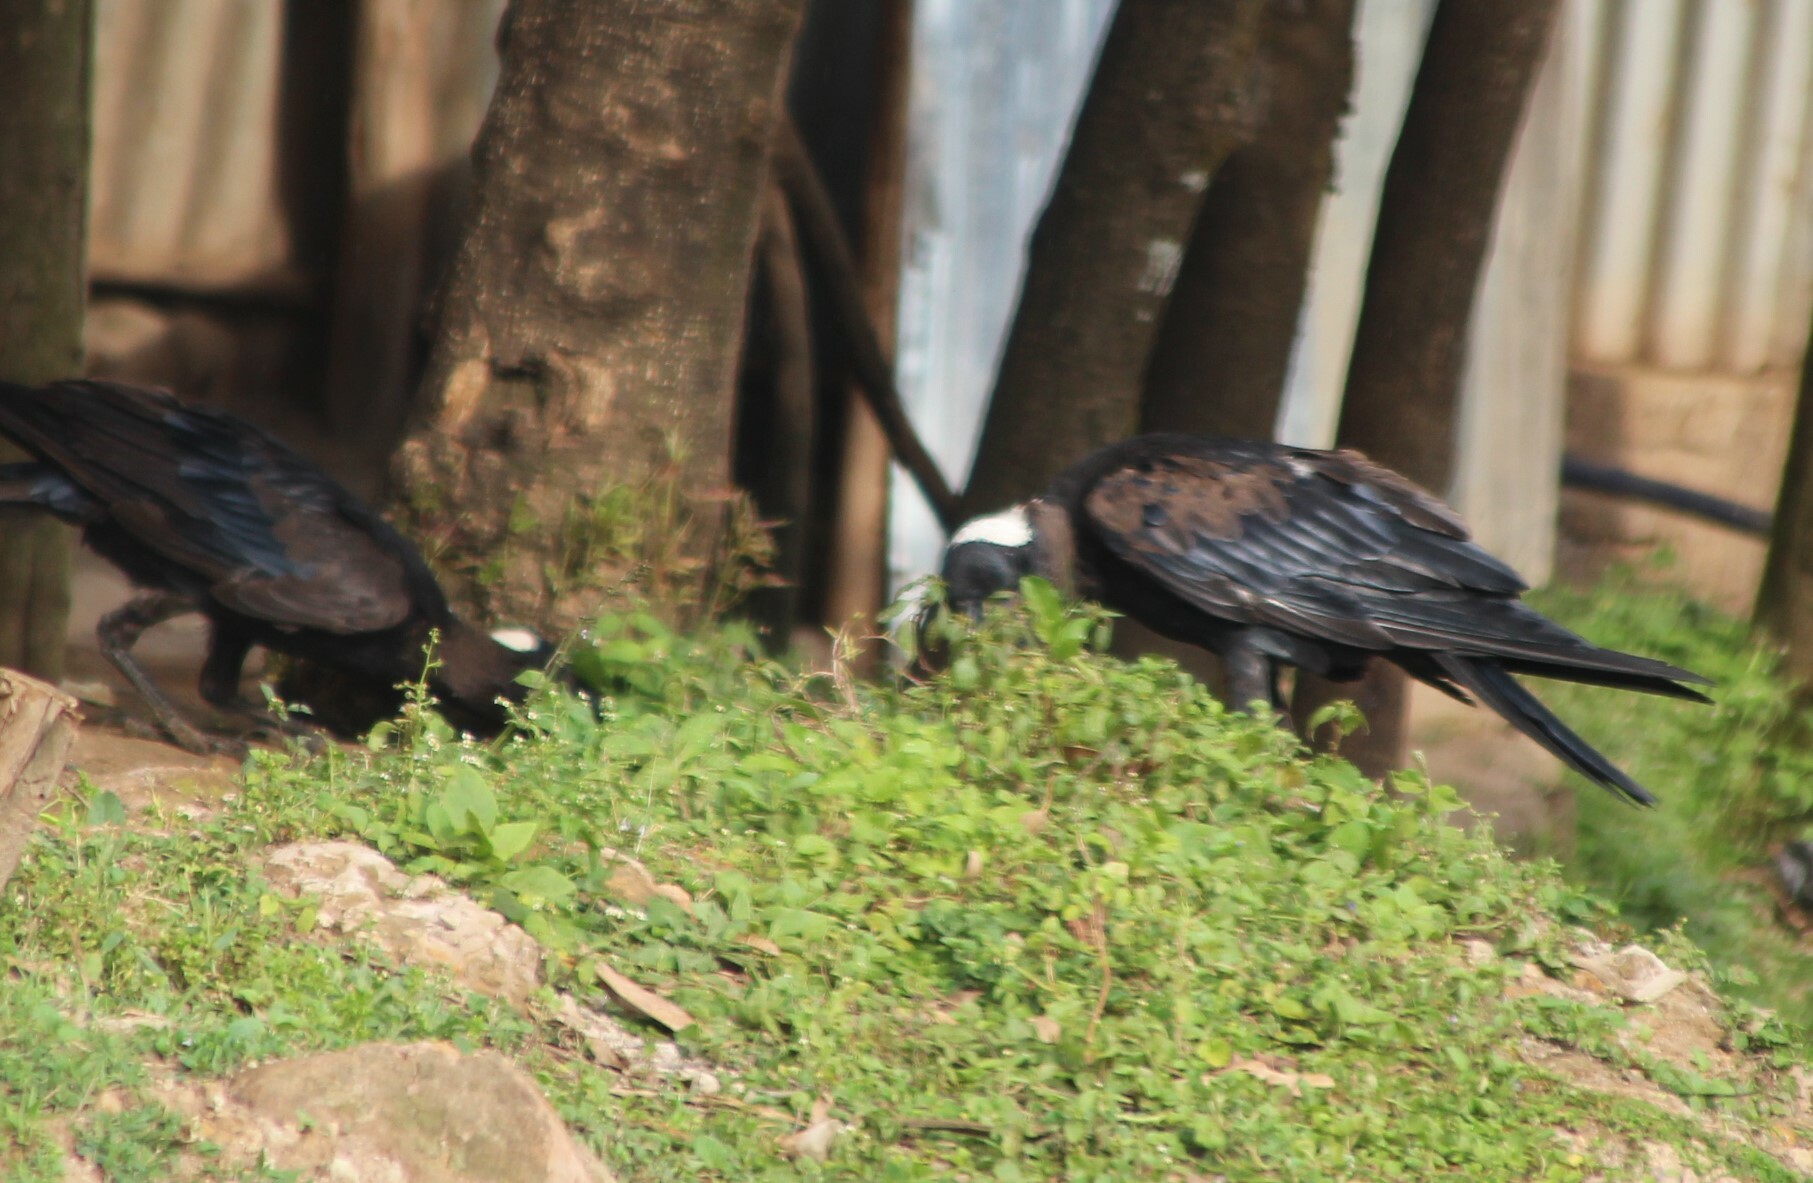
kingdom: Animalia
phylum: Chordata
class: Aves
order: Passeriformes
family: Corvidae
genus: Corvus
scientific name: Corvus crassirostris
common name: Thick-billed raven
